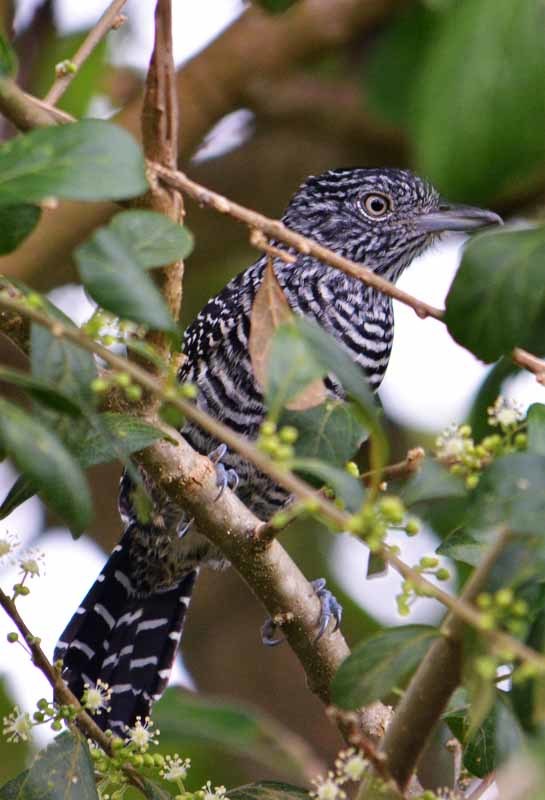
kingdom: Animalia
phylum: Chordata
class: Aves
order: Passeriformes
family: Thamnophilidae
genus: Thamnophilus
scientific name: Thamnophilus doliatus
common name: Barred antshrike
